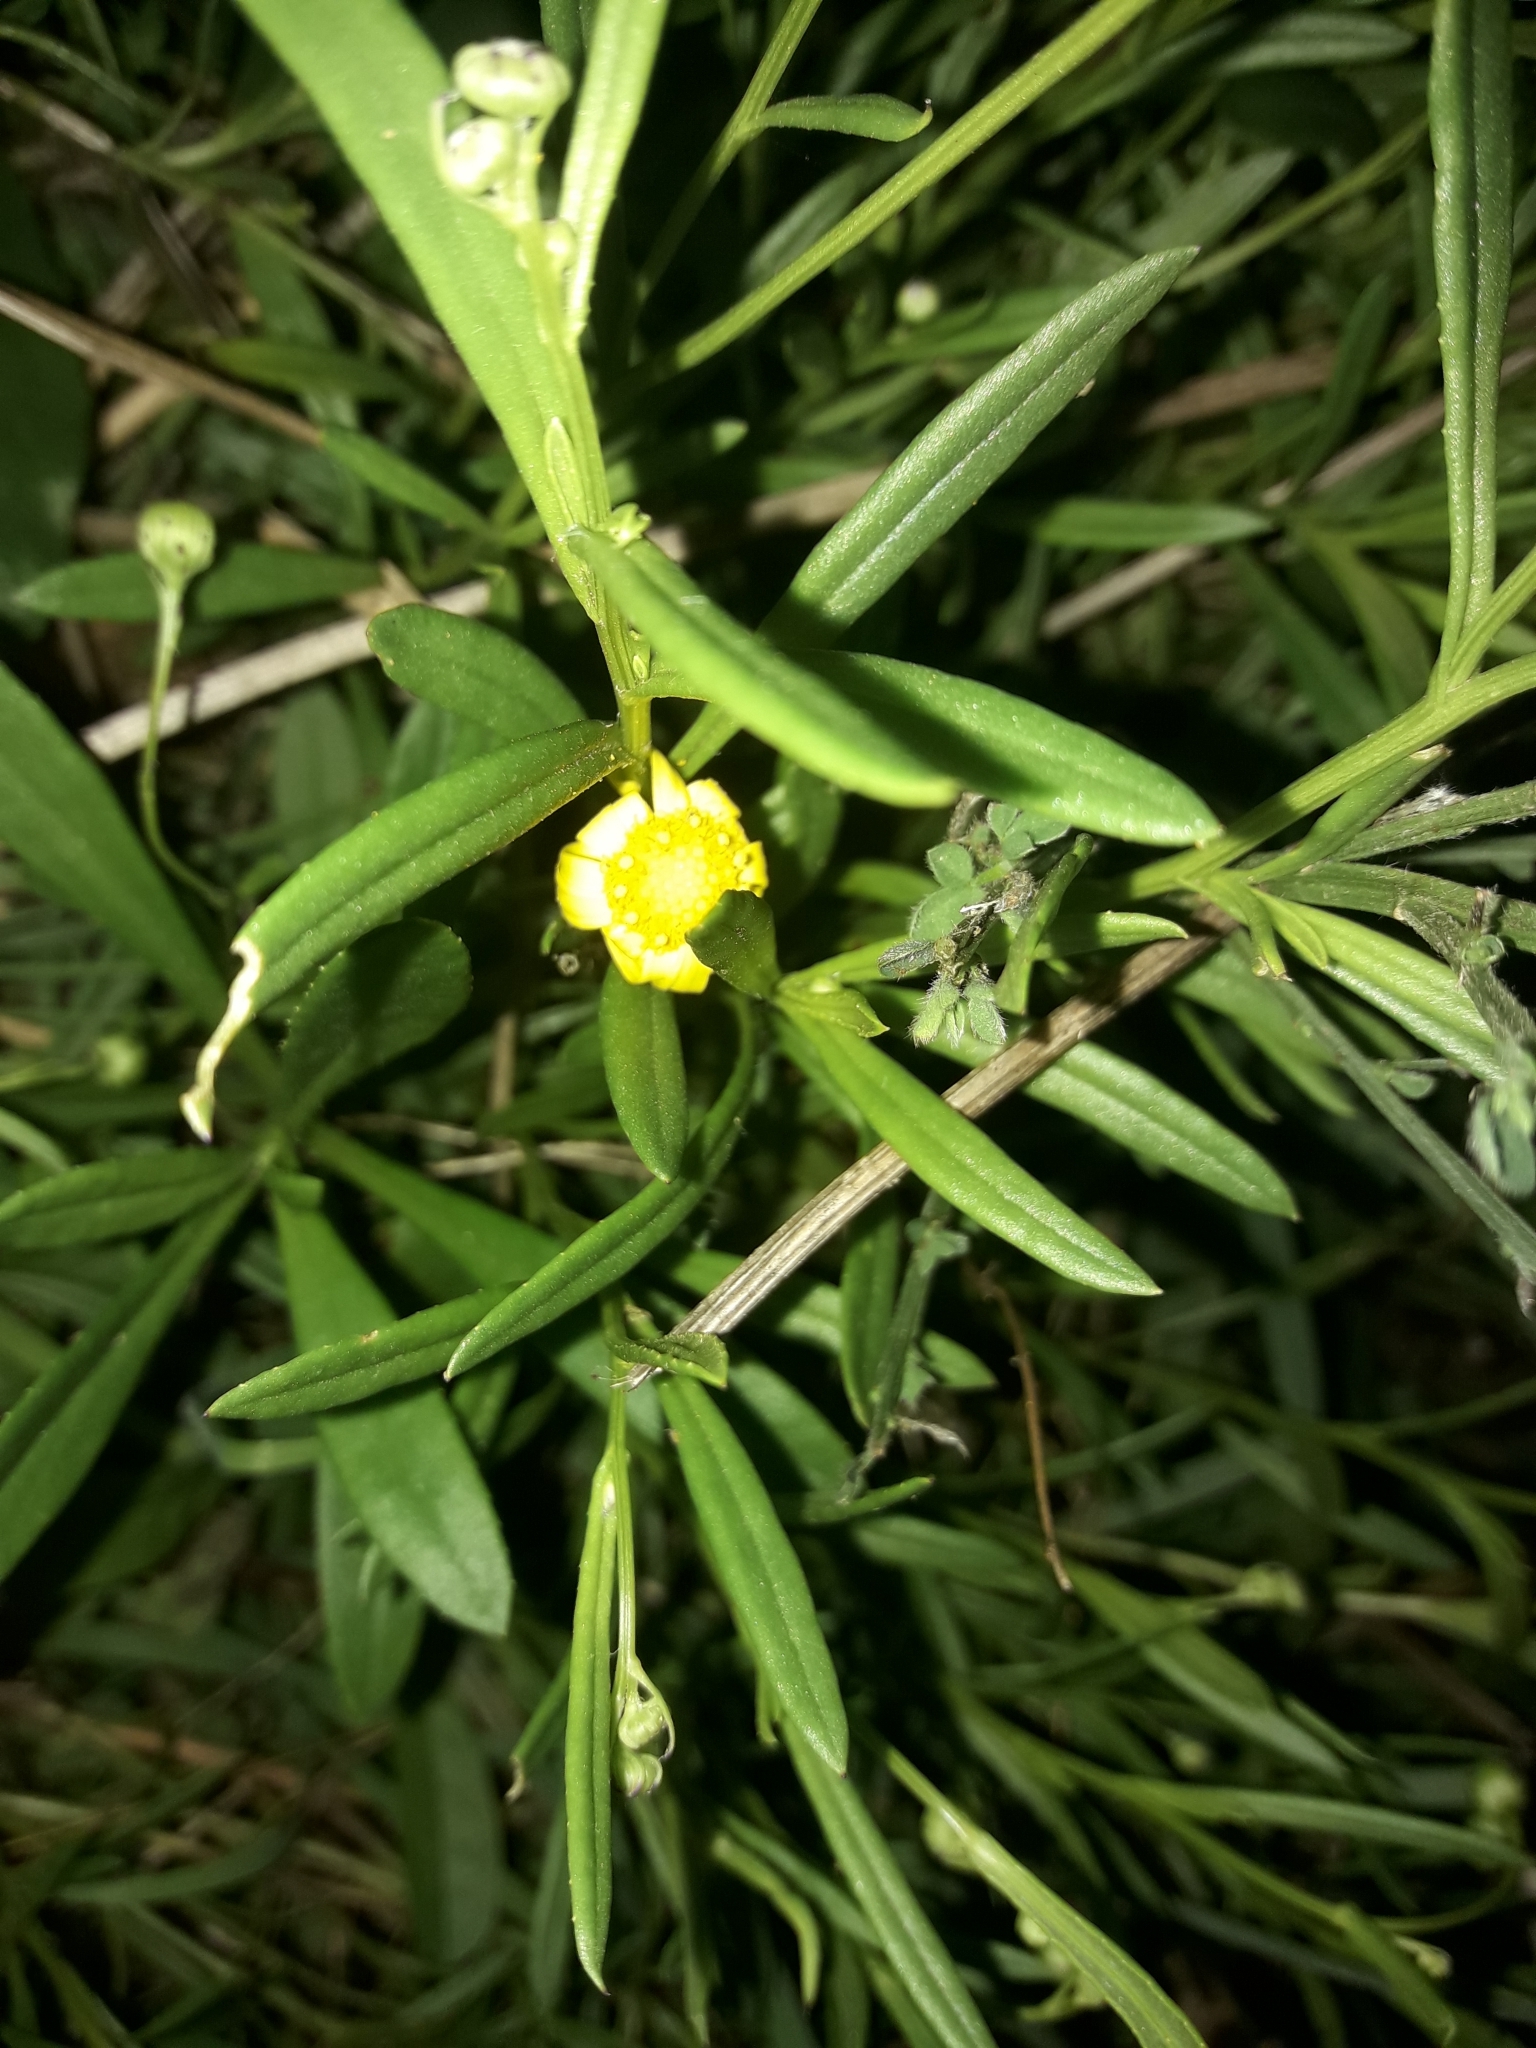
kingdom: Plantae
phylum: Tracheophyta
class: Magnoliopsida
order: Asterales
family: Asteraceae
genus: Senecio
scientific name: Senecio skirrhodon
